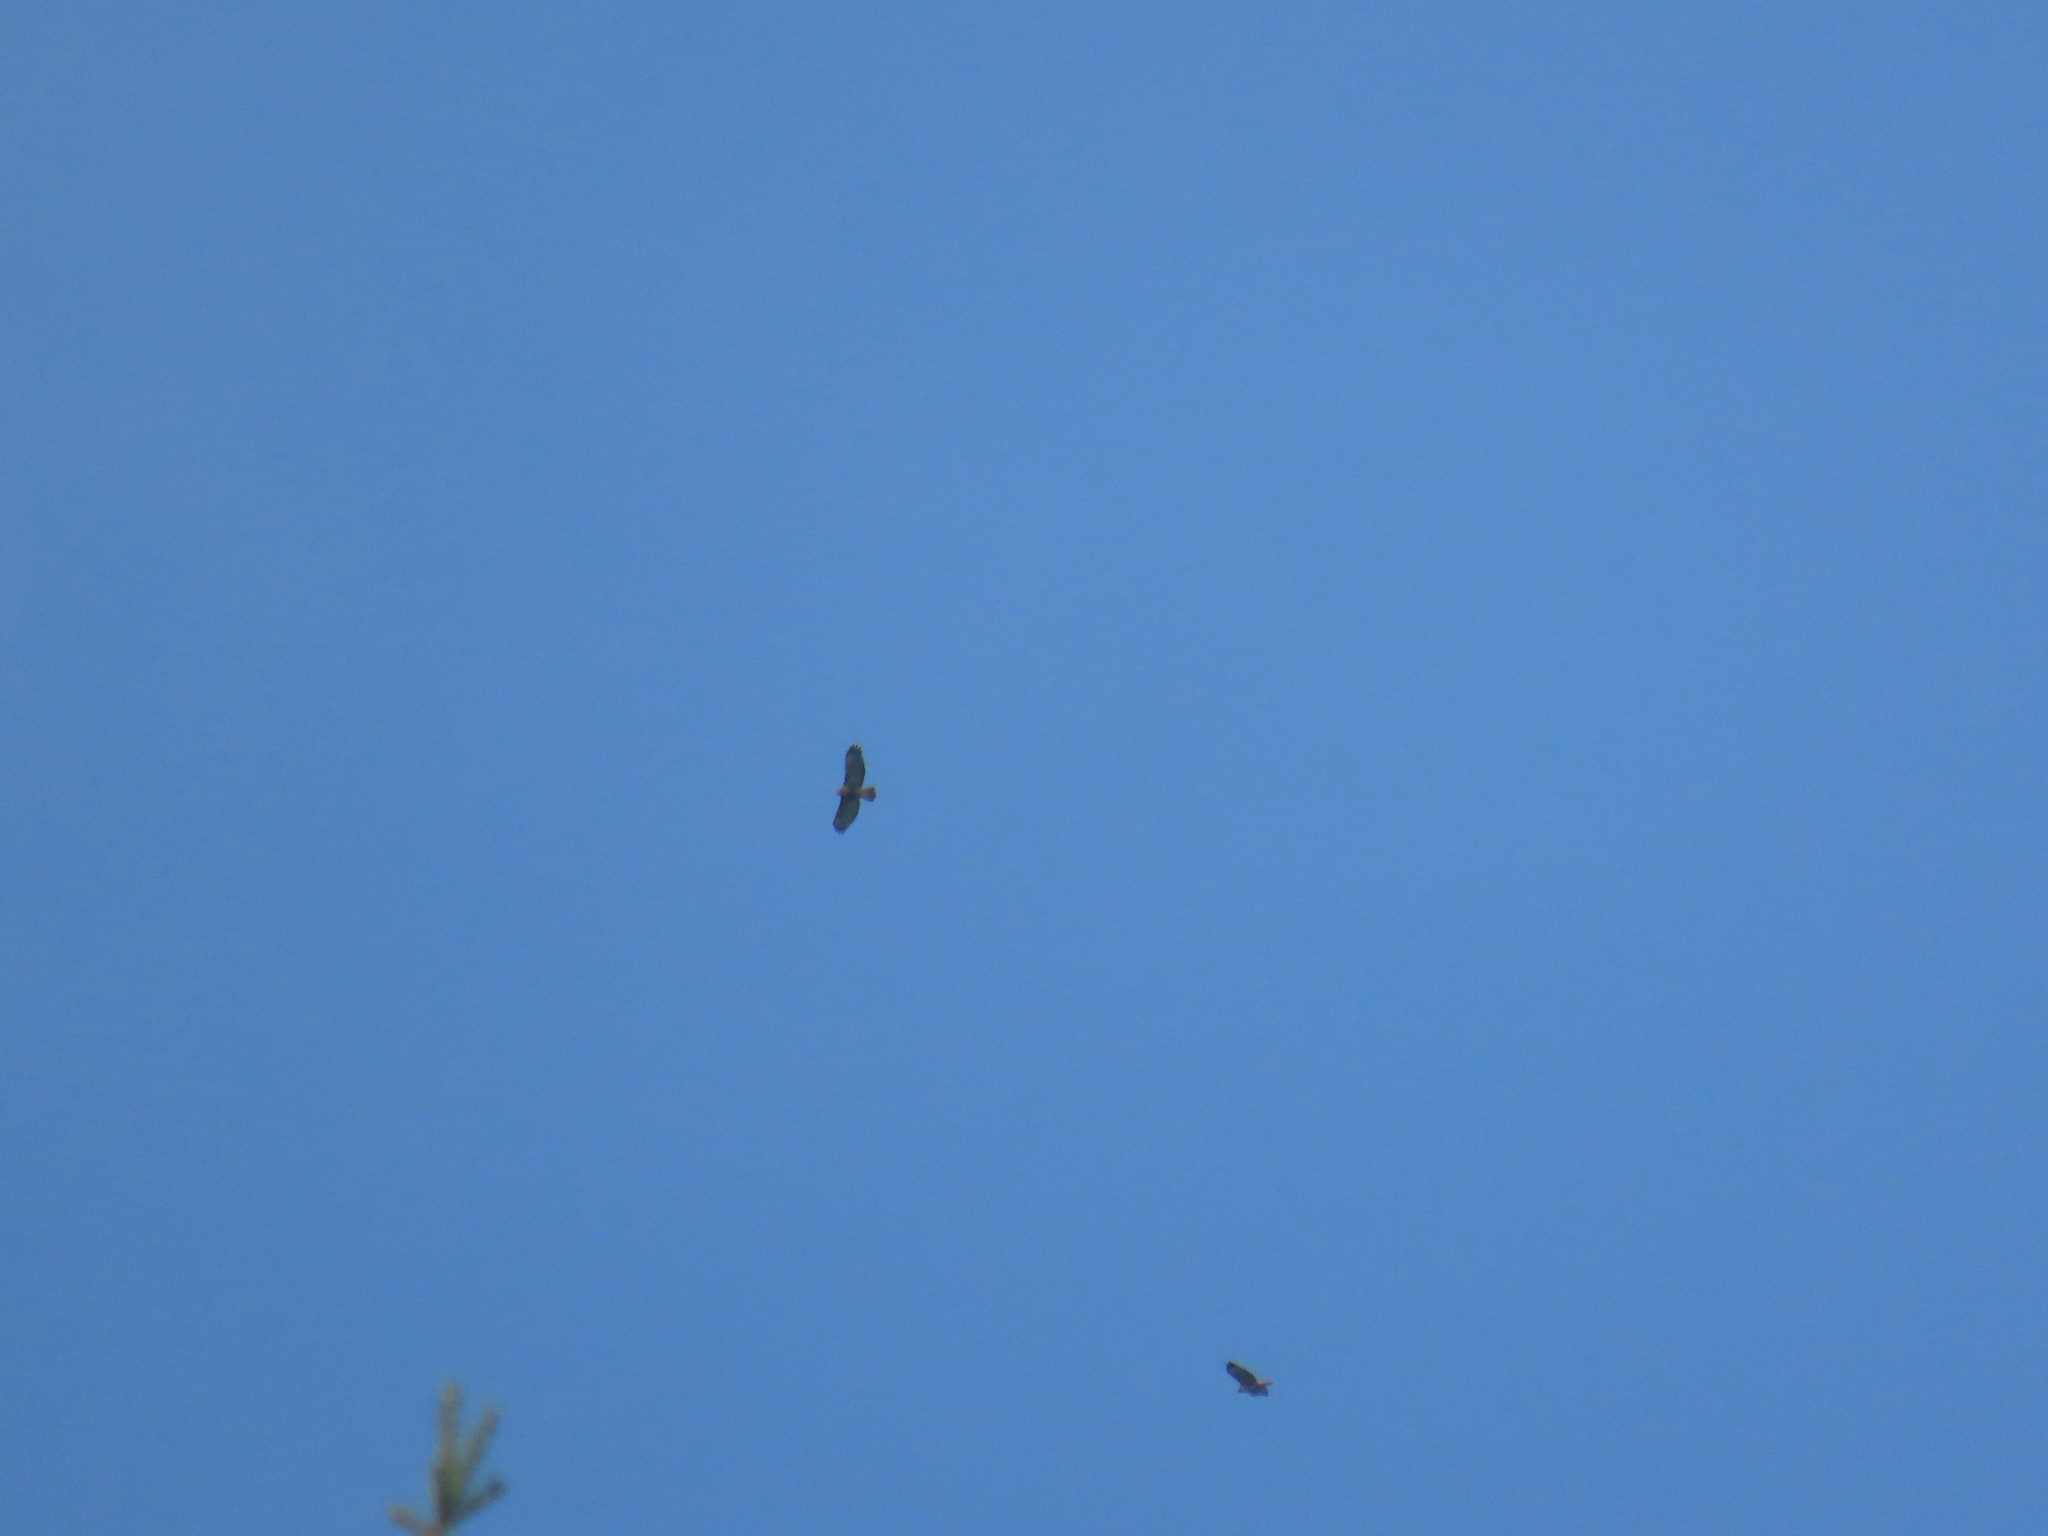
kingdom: Animalia
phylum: Chordata
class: Aves
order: Accipitriformes
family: Accipitridae
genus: Buteo
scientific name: Buteo jamaicensis
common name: Red-tailed hawk
